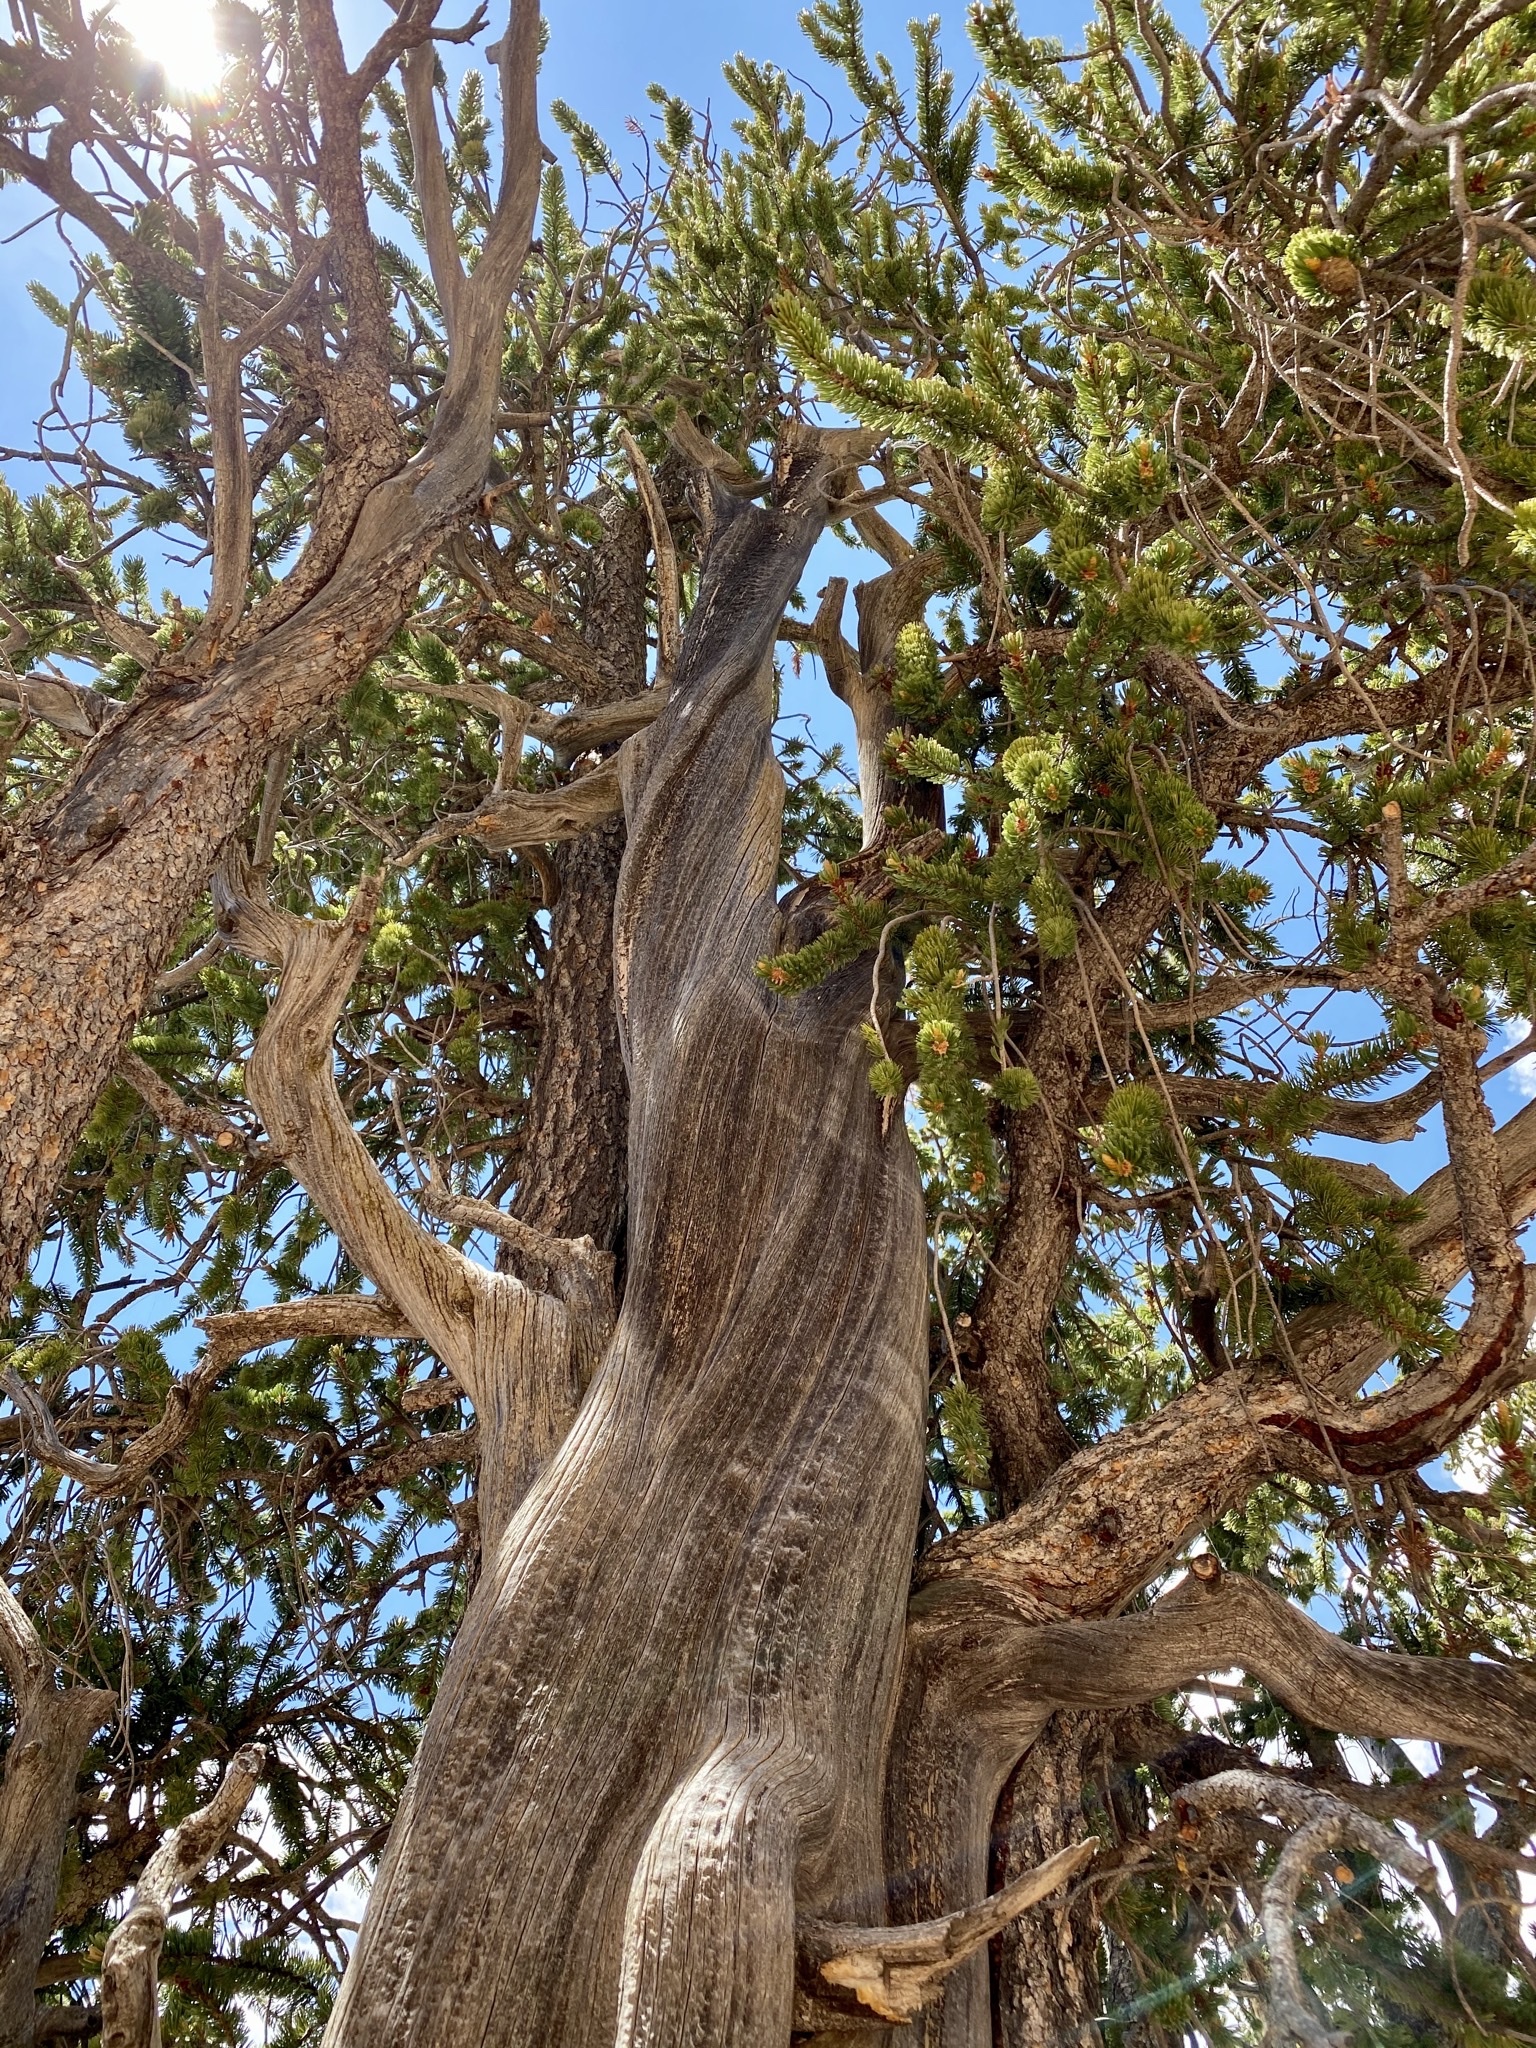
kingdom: Plantae
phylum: Tracheophyta
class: Pinopsida
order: Pinales
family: Pinaceae
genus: Pinus
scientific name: Pinus longaeva
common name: Intermountain bristlecone pine
